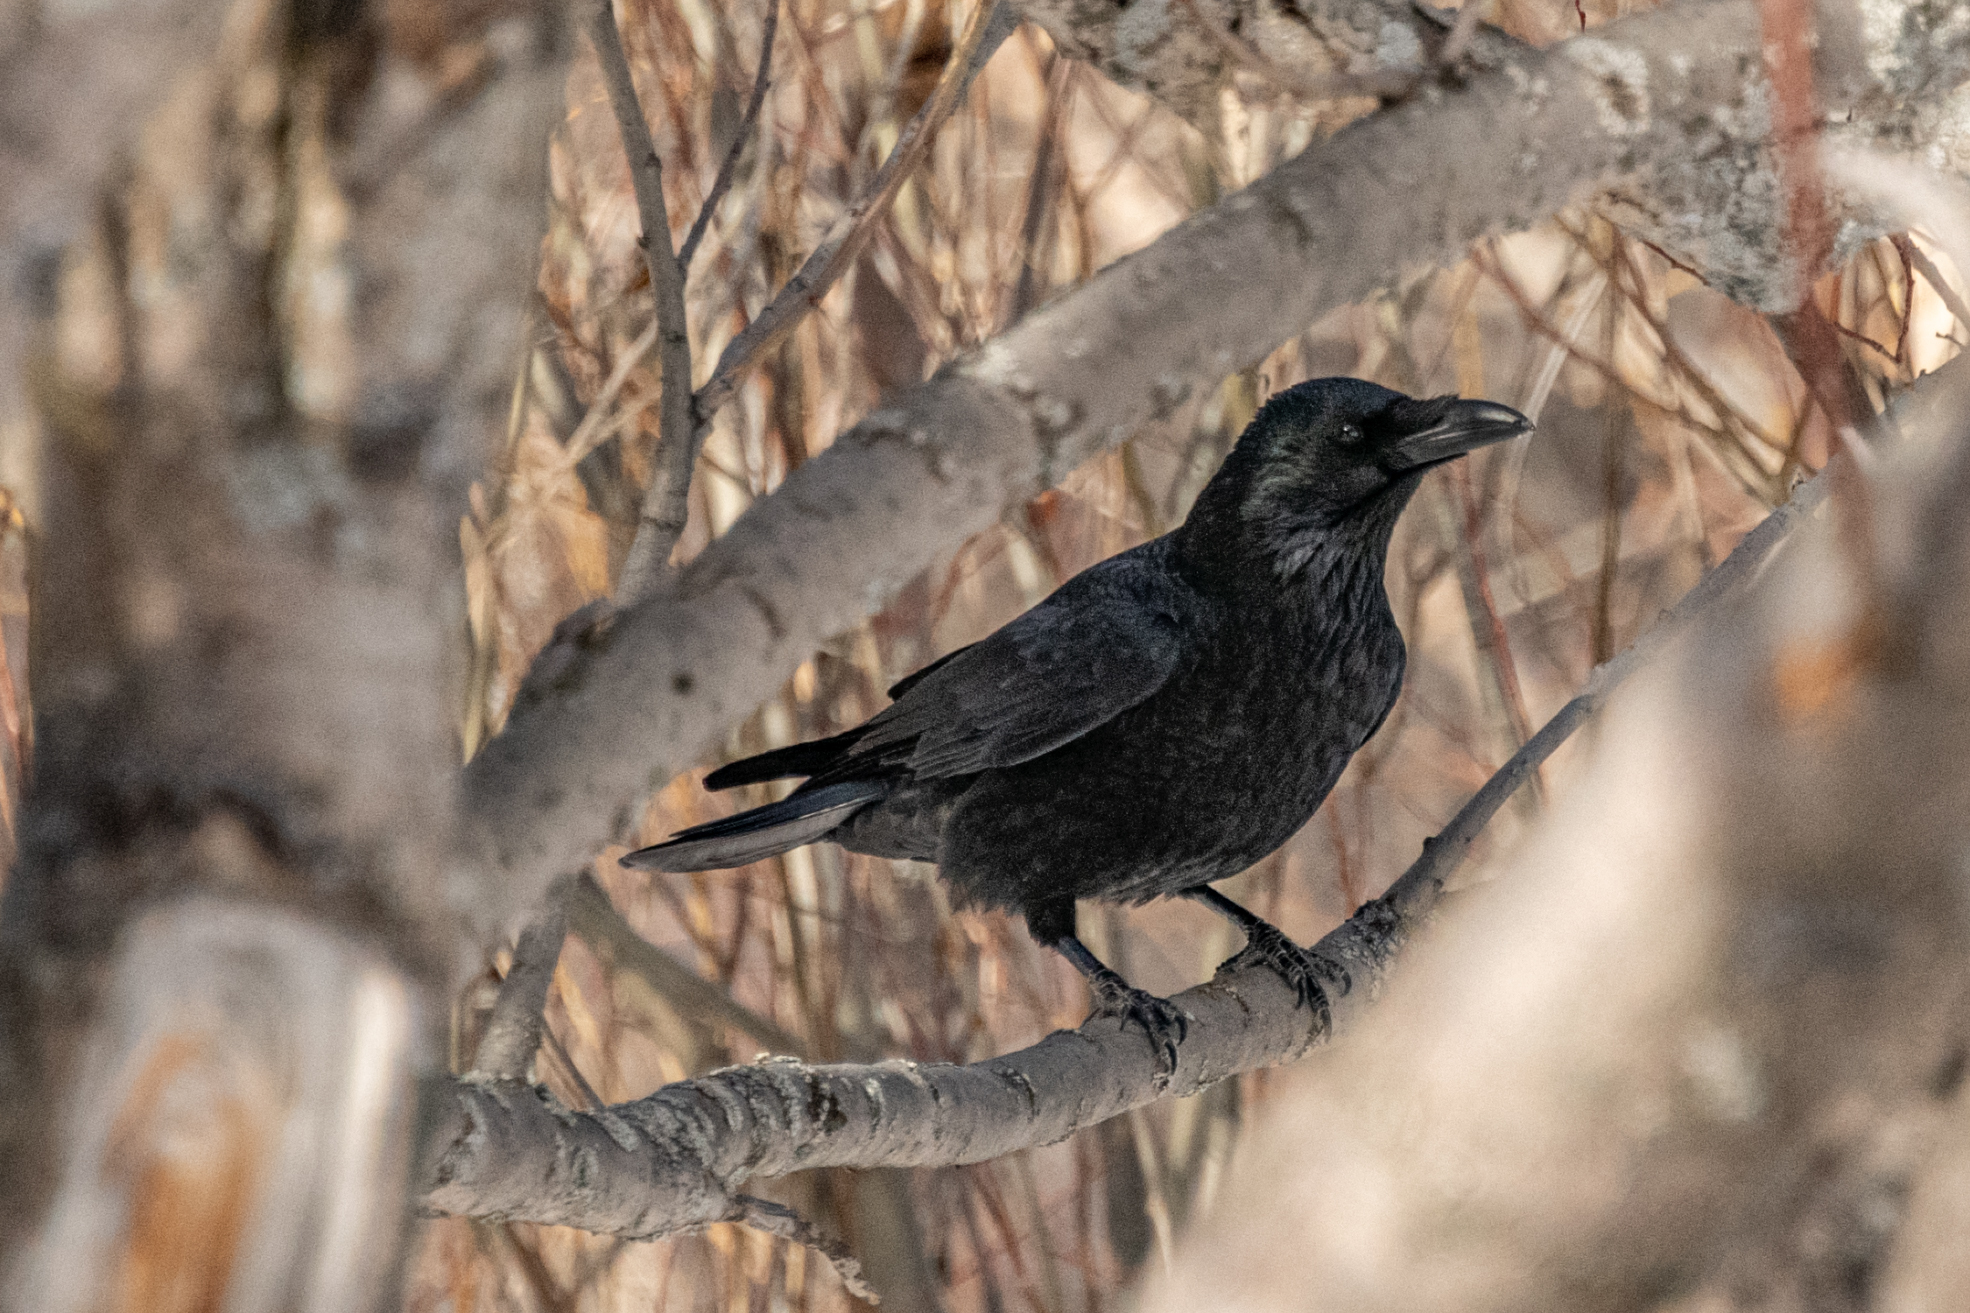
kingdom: Animalia
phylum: Chordata
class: Aves
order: Passeriformes
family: Corvidae
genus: Corvus
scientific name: Corvus corone
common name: Carrion crow
